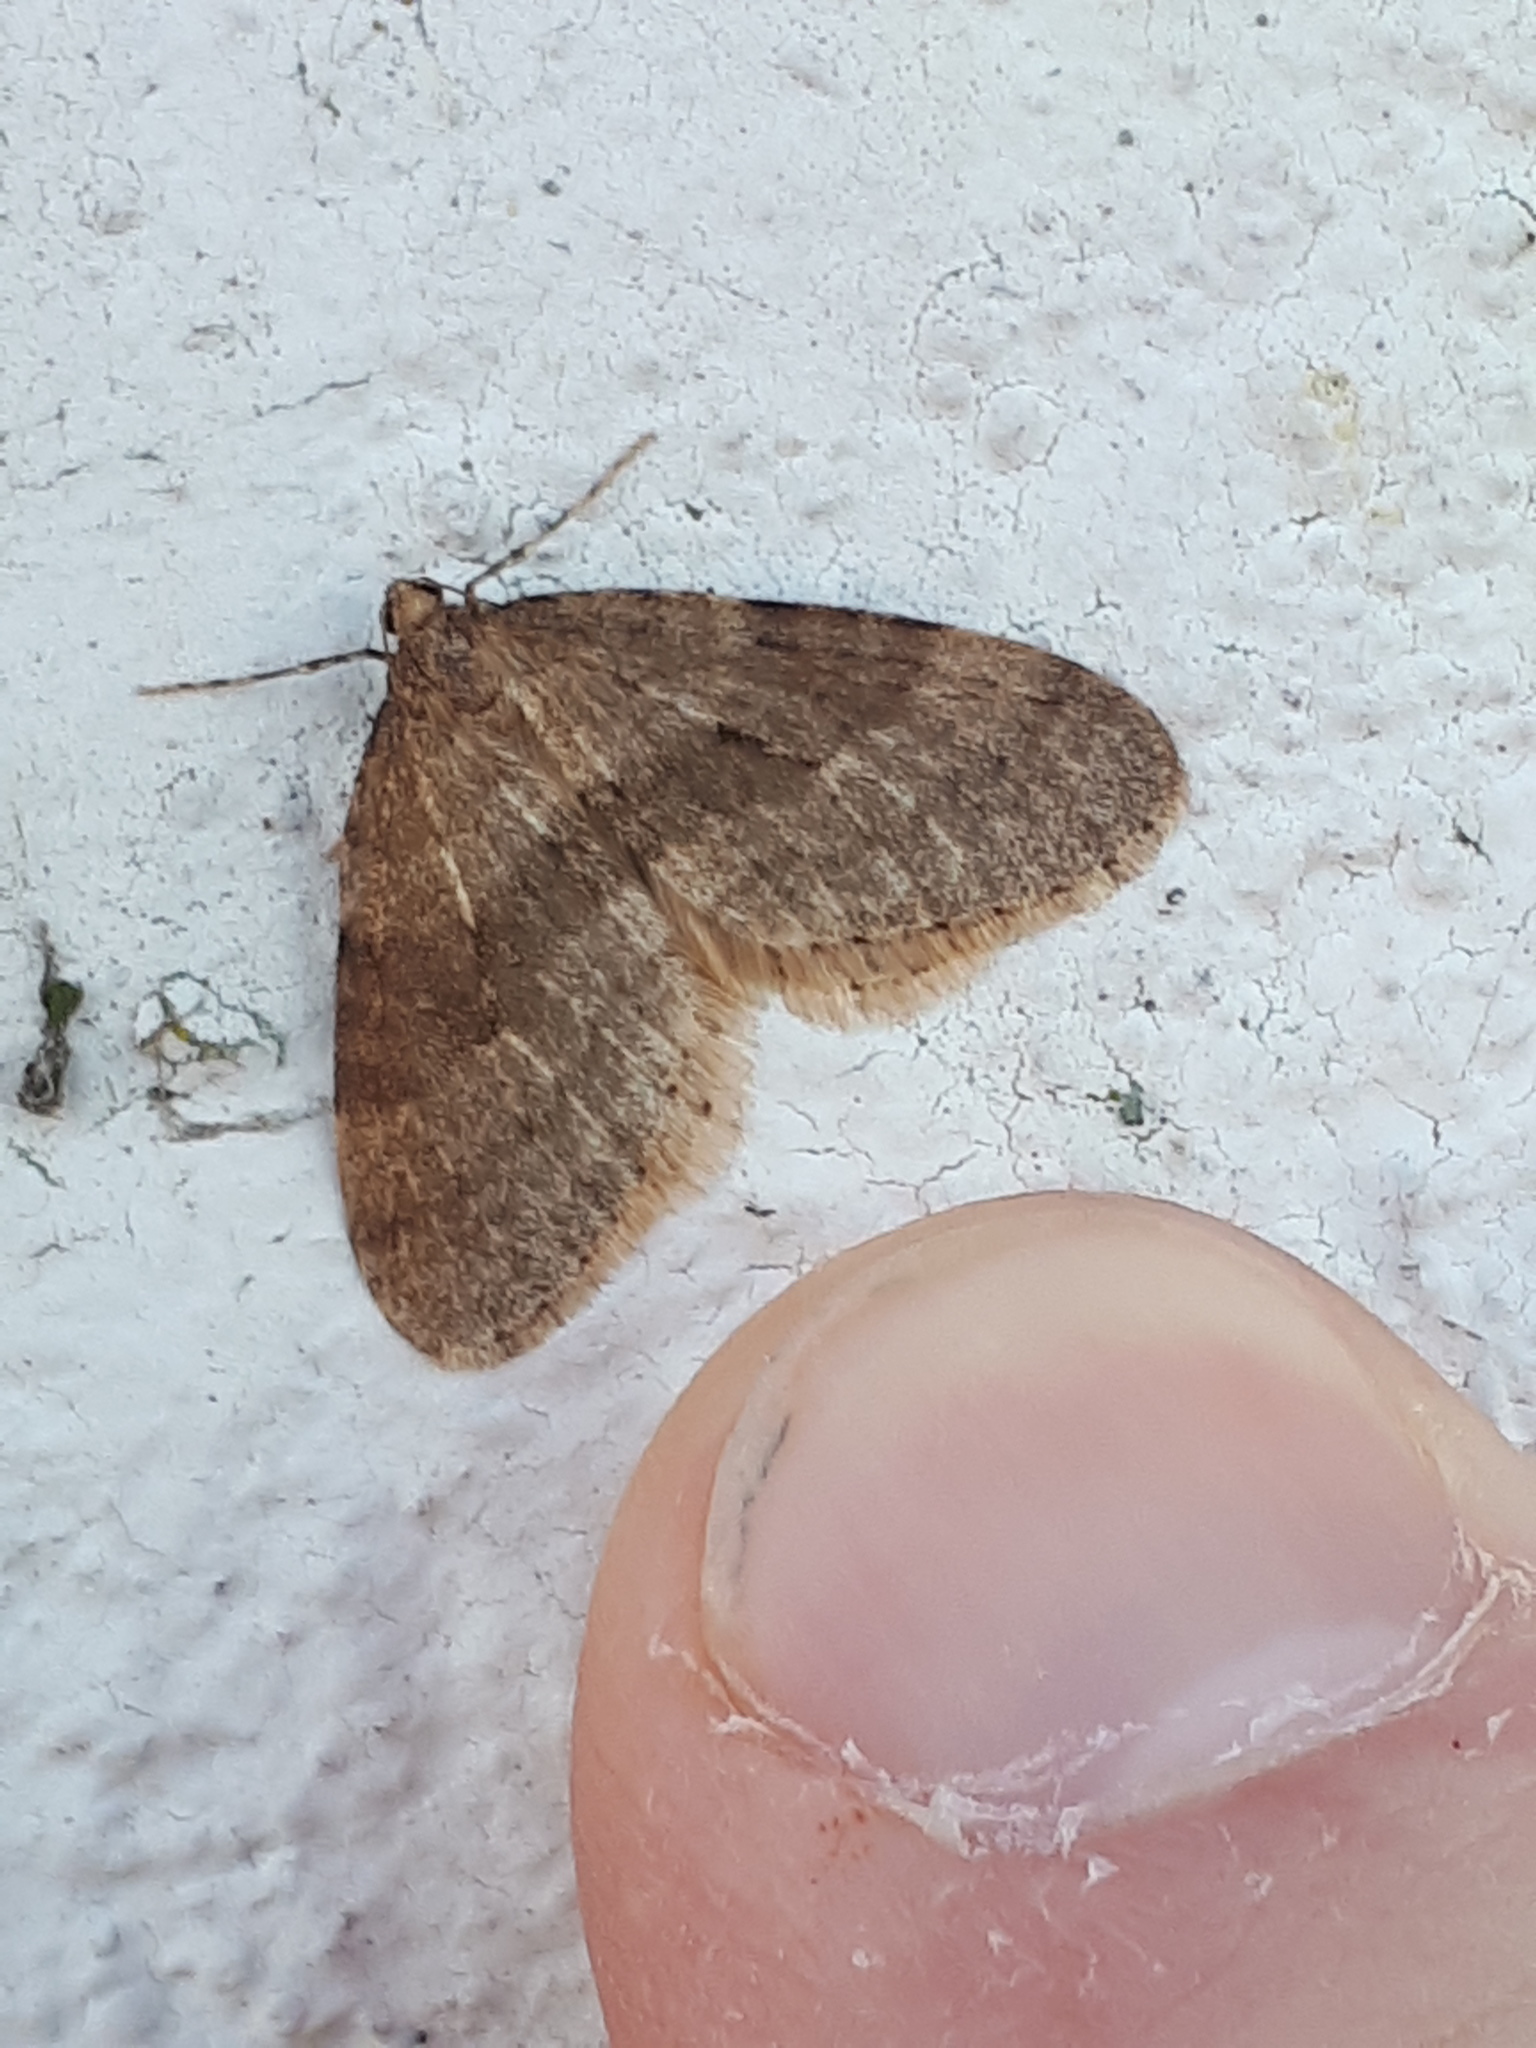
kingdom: Animalia
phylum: Arthropoda
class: Insecta
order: Lepidoptera
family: Geometridae
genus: Operophtera
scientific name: Operophtera brumata
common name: Winter moth
